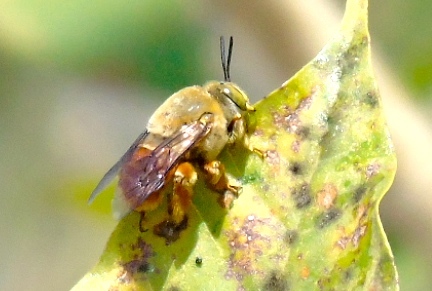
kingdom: Animalia
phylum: Arthropoda
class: Insecta
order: Hymenoptera
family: Apidae
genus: Centris
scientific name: Centris
